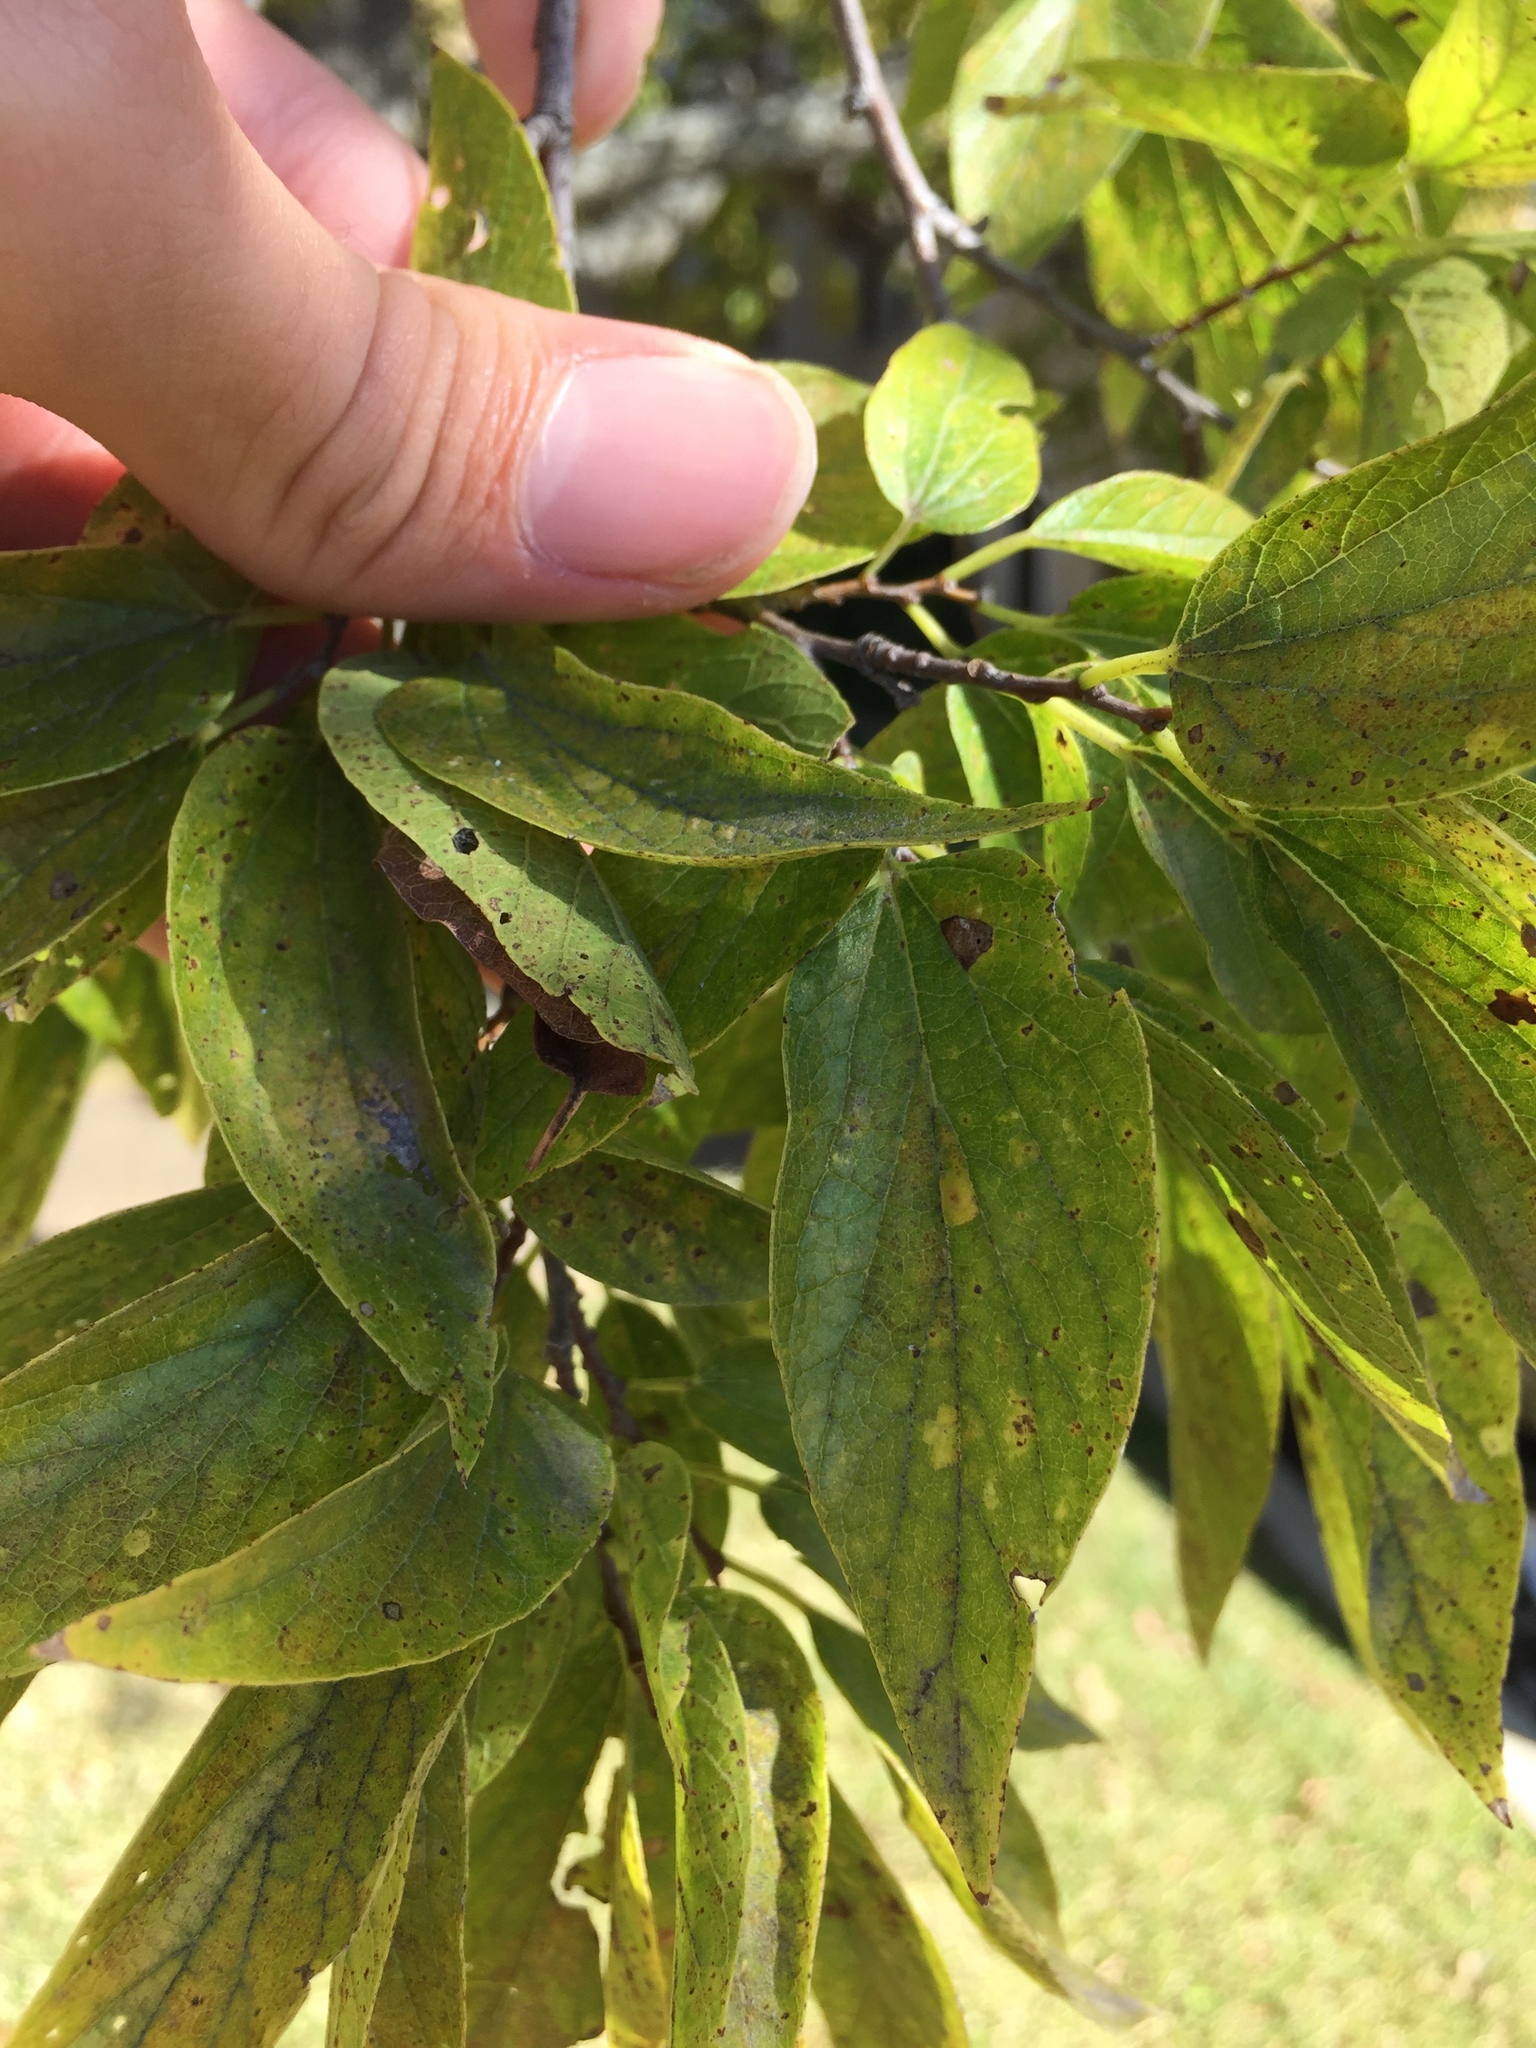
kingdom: Plantae
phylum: Tracheophyta
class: Magnoliopsida
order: Rosales
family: Cannabaceae
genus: Celtis
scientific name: Celtis laevigata
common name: Sugarberry
